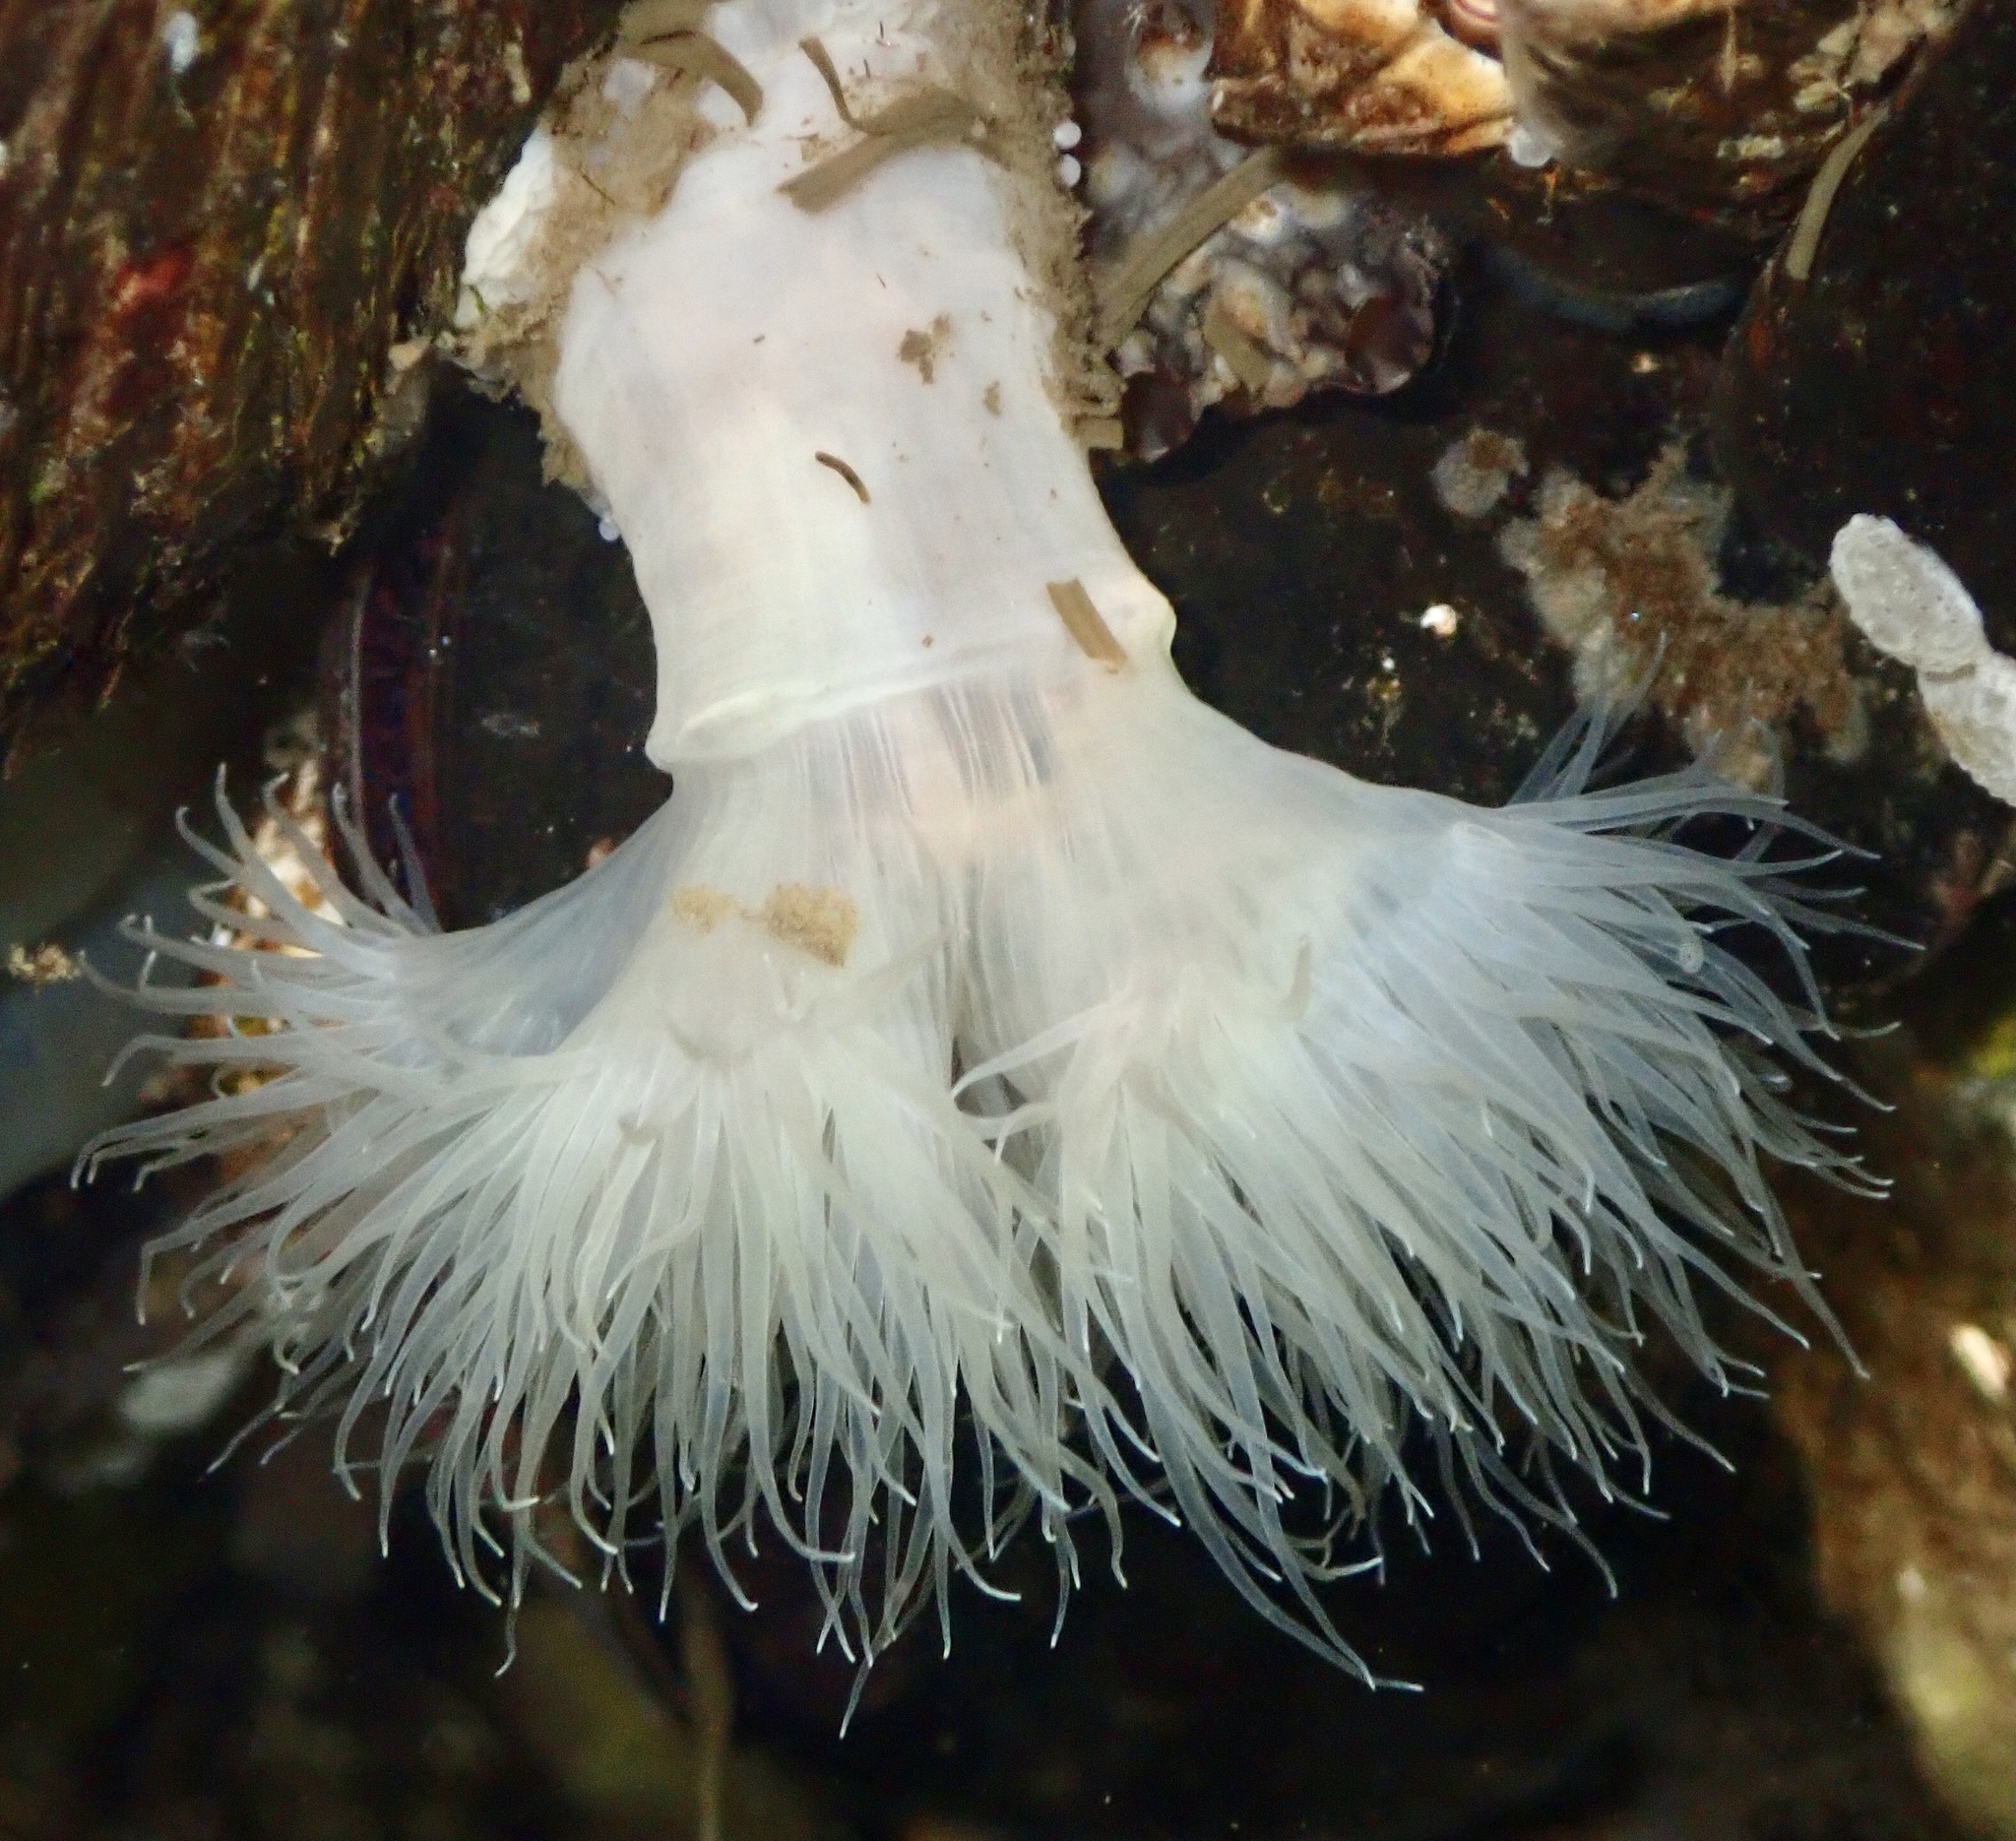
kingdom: Animalia
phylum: Cnidaria
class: Anthozoa
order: Actiniaria
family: Metridiidae
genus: Metridium
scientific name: Metridium senile
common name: Clonal plumose anemone
